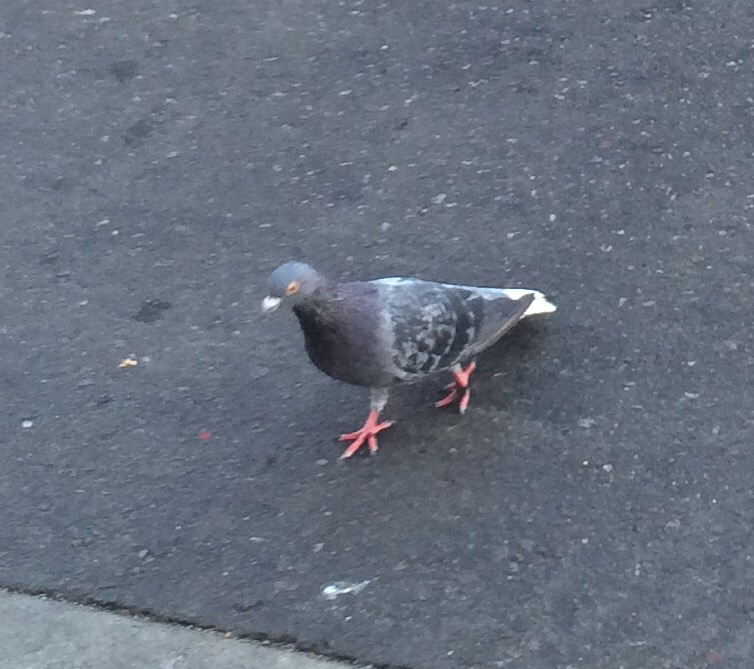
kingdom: Animalia
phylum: Chordata
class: Aves
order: Columbiformes
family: Columbidae
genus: Columba
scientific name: Columba livia
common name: Rock pigeon
